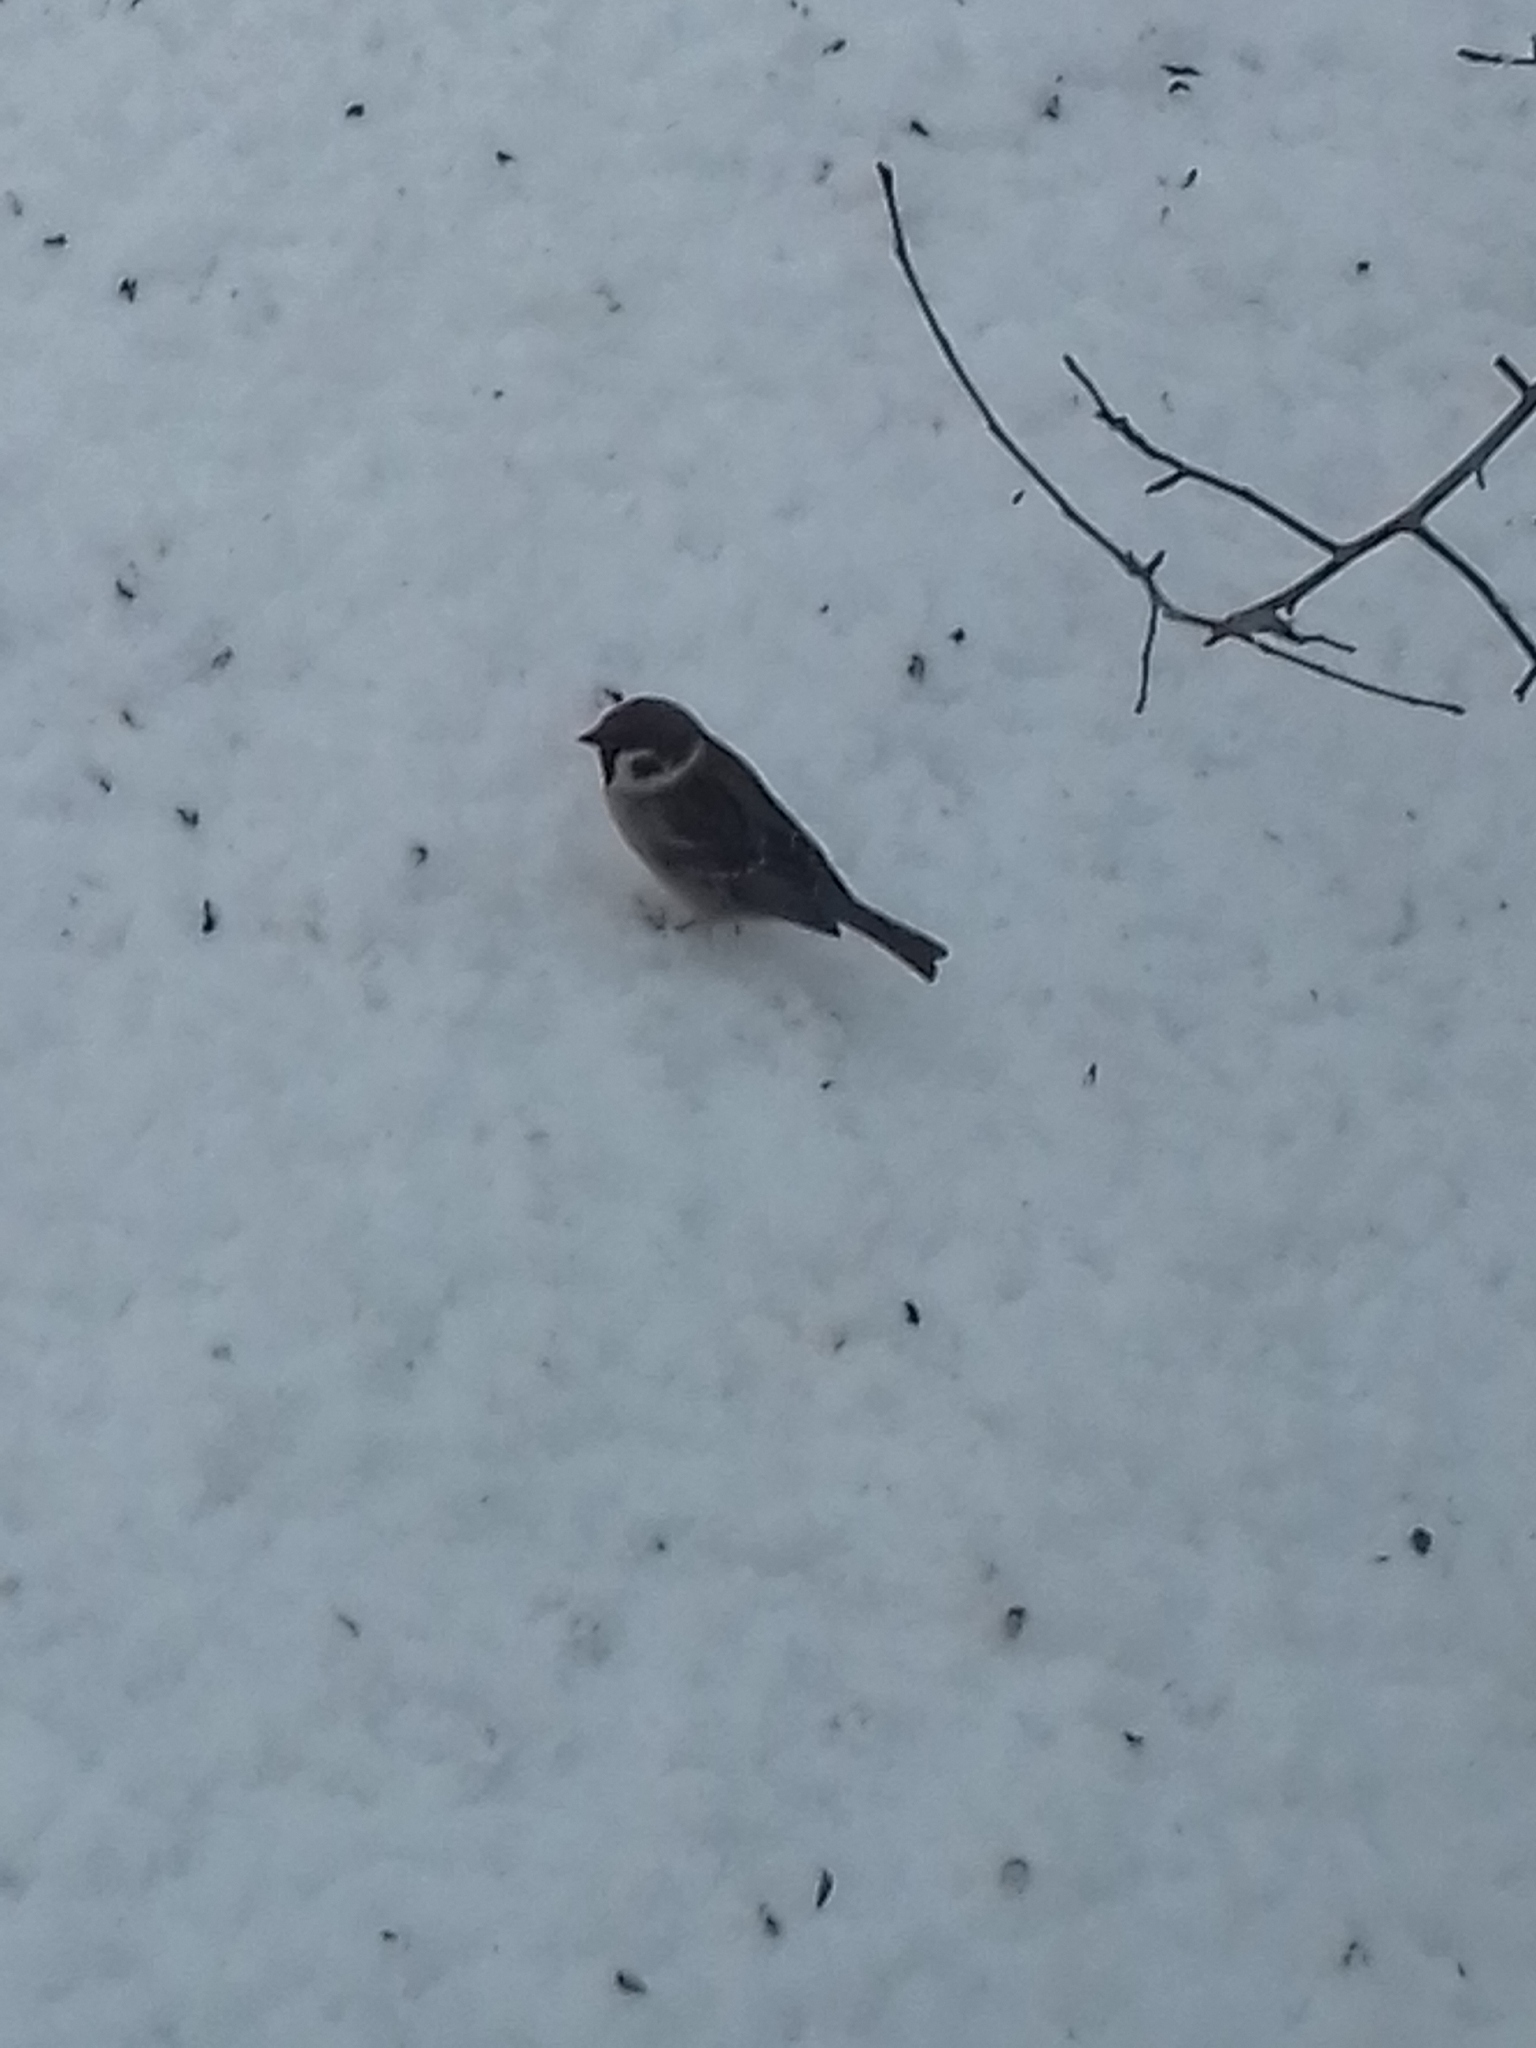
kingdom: Animalia
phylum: Chordata
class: Aves
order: Passeriformes
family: Passeridae
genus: Passer
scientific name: Passer montanus
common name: Eurasian tree sparrow
